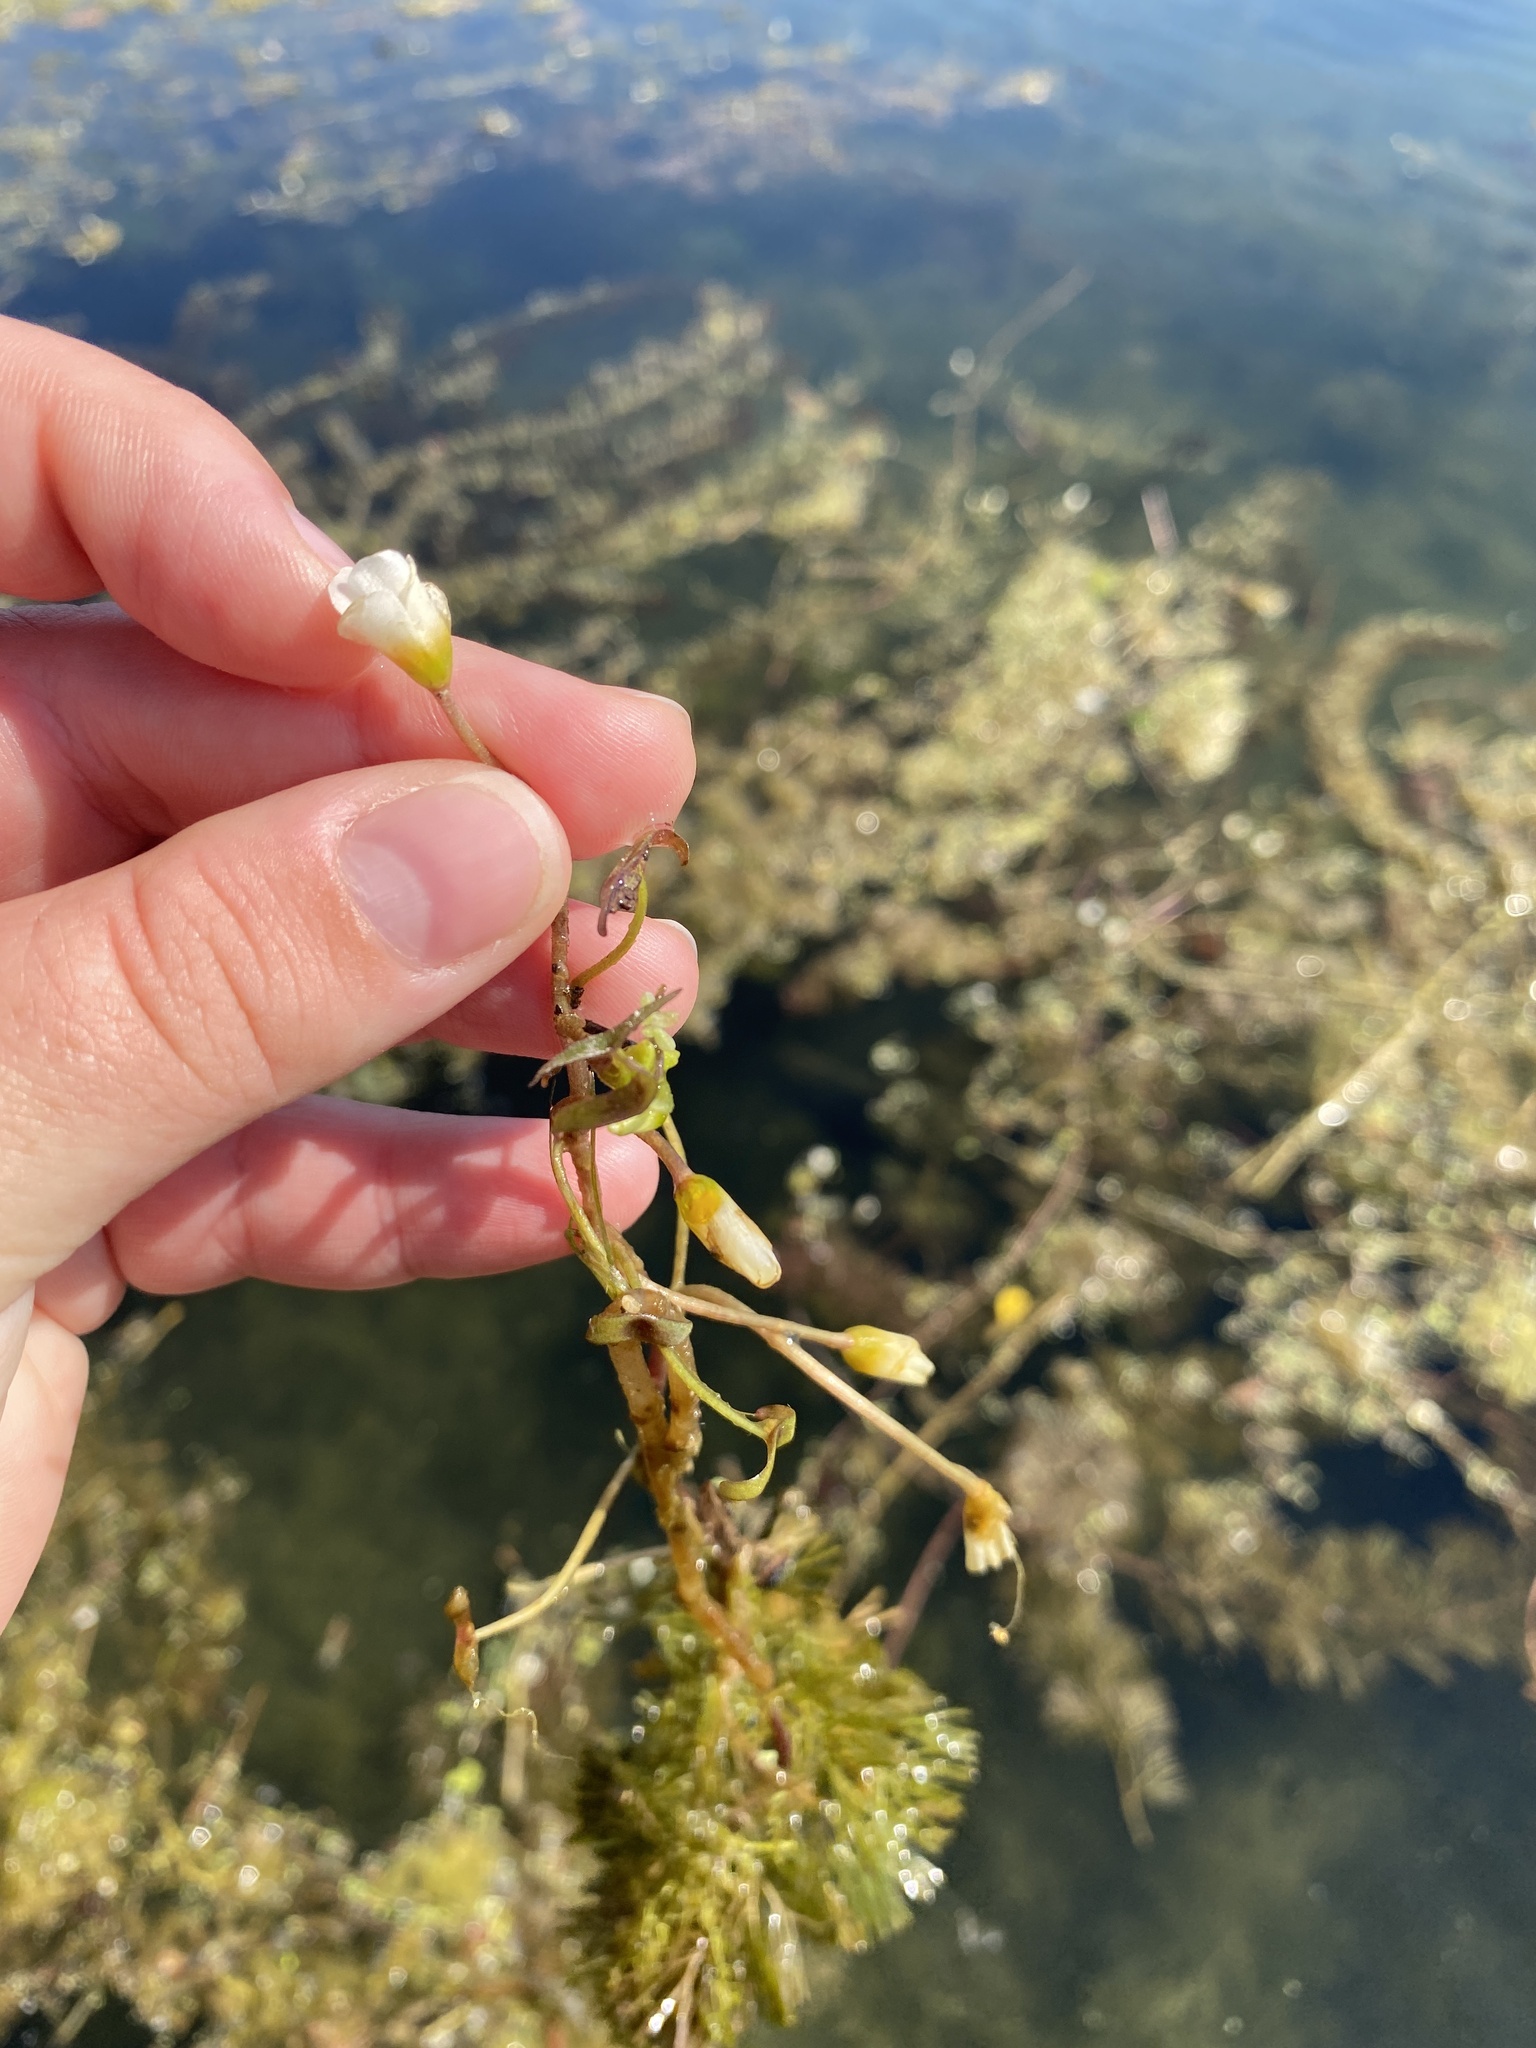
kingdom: Plantae
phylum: Tracheophyta
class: Magnoliopsida
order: Nymphaeales
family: Cabombaceae
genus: Cabomba
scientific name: Cabomba caroliniana
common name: Fanwort
